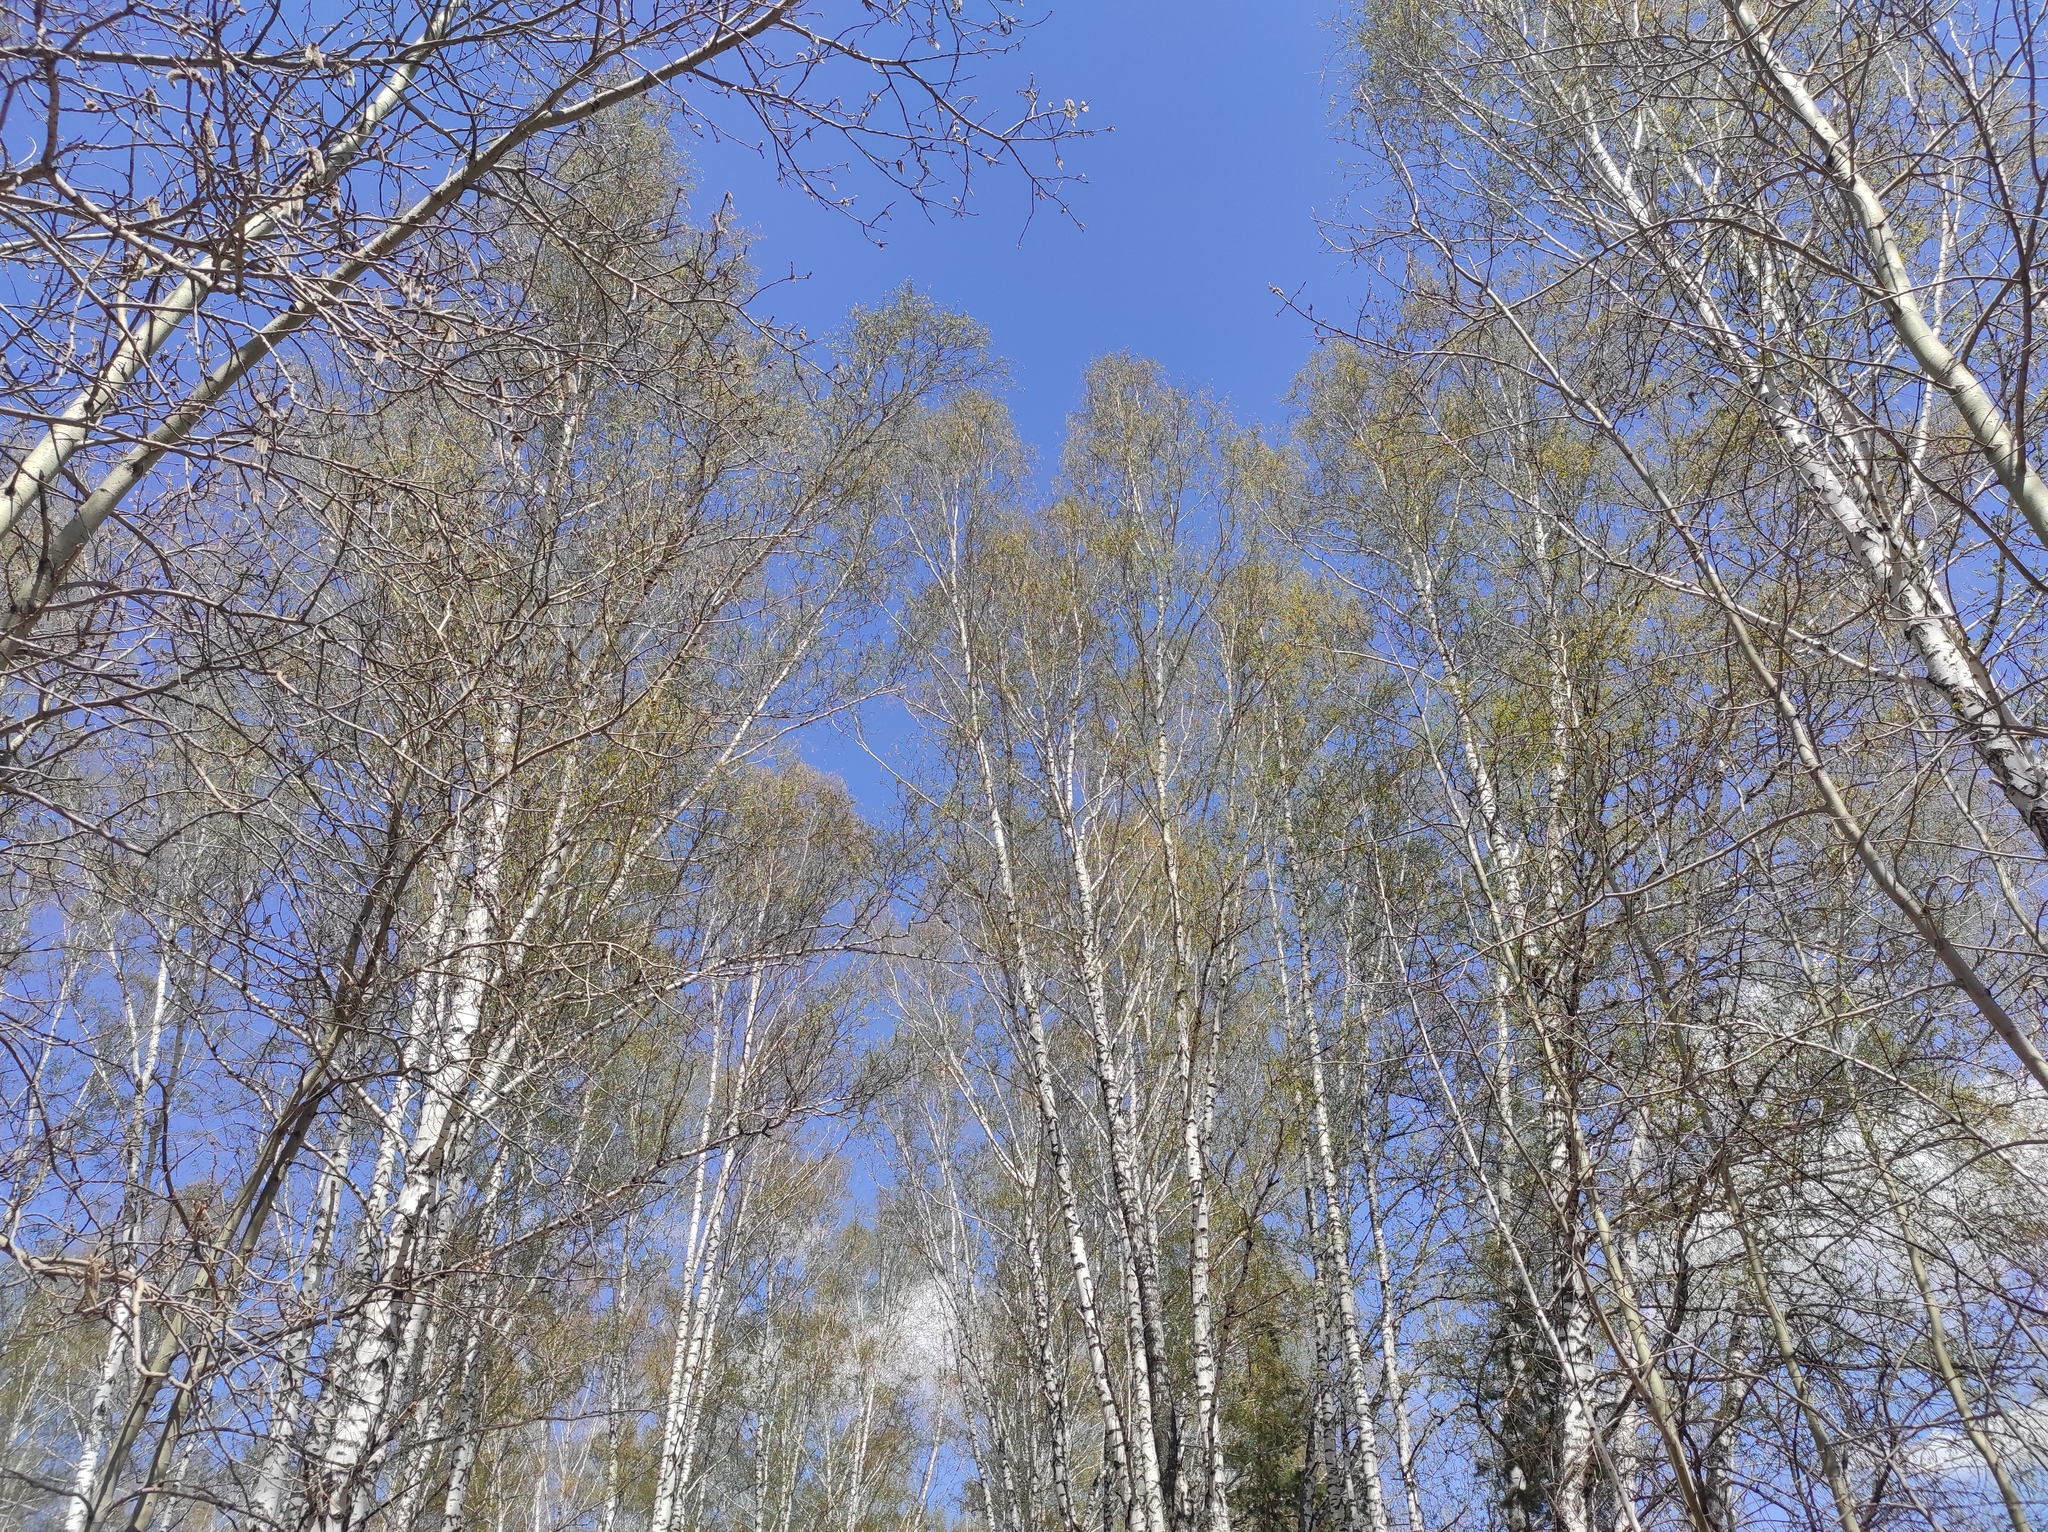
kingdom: Plantae
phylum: Tracheophyta
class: Magnoliopsida
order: Fagales
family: Betulaceae
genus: Betula
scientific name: Betula pendula
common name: Silver birch
